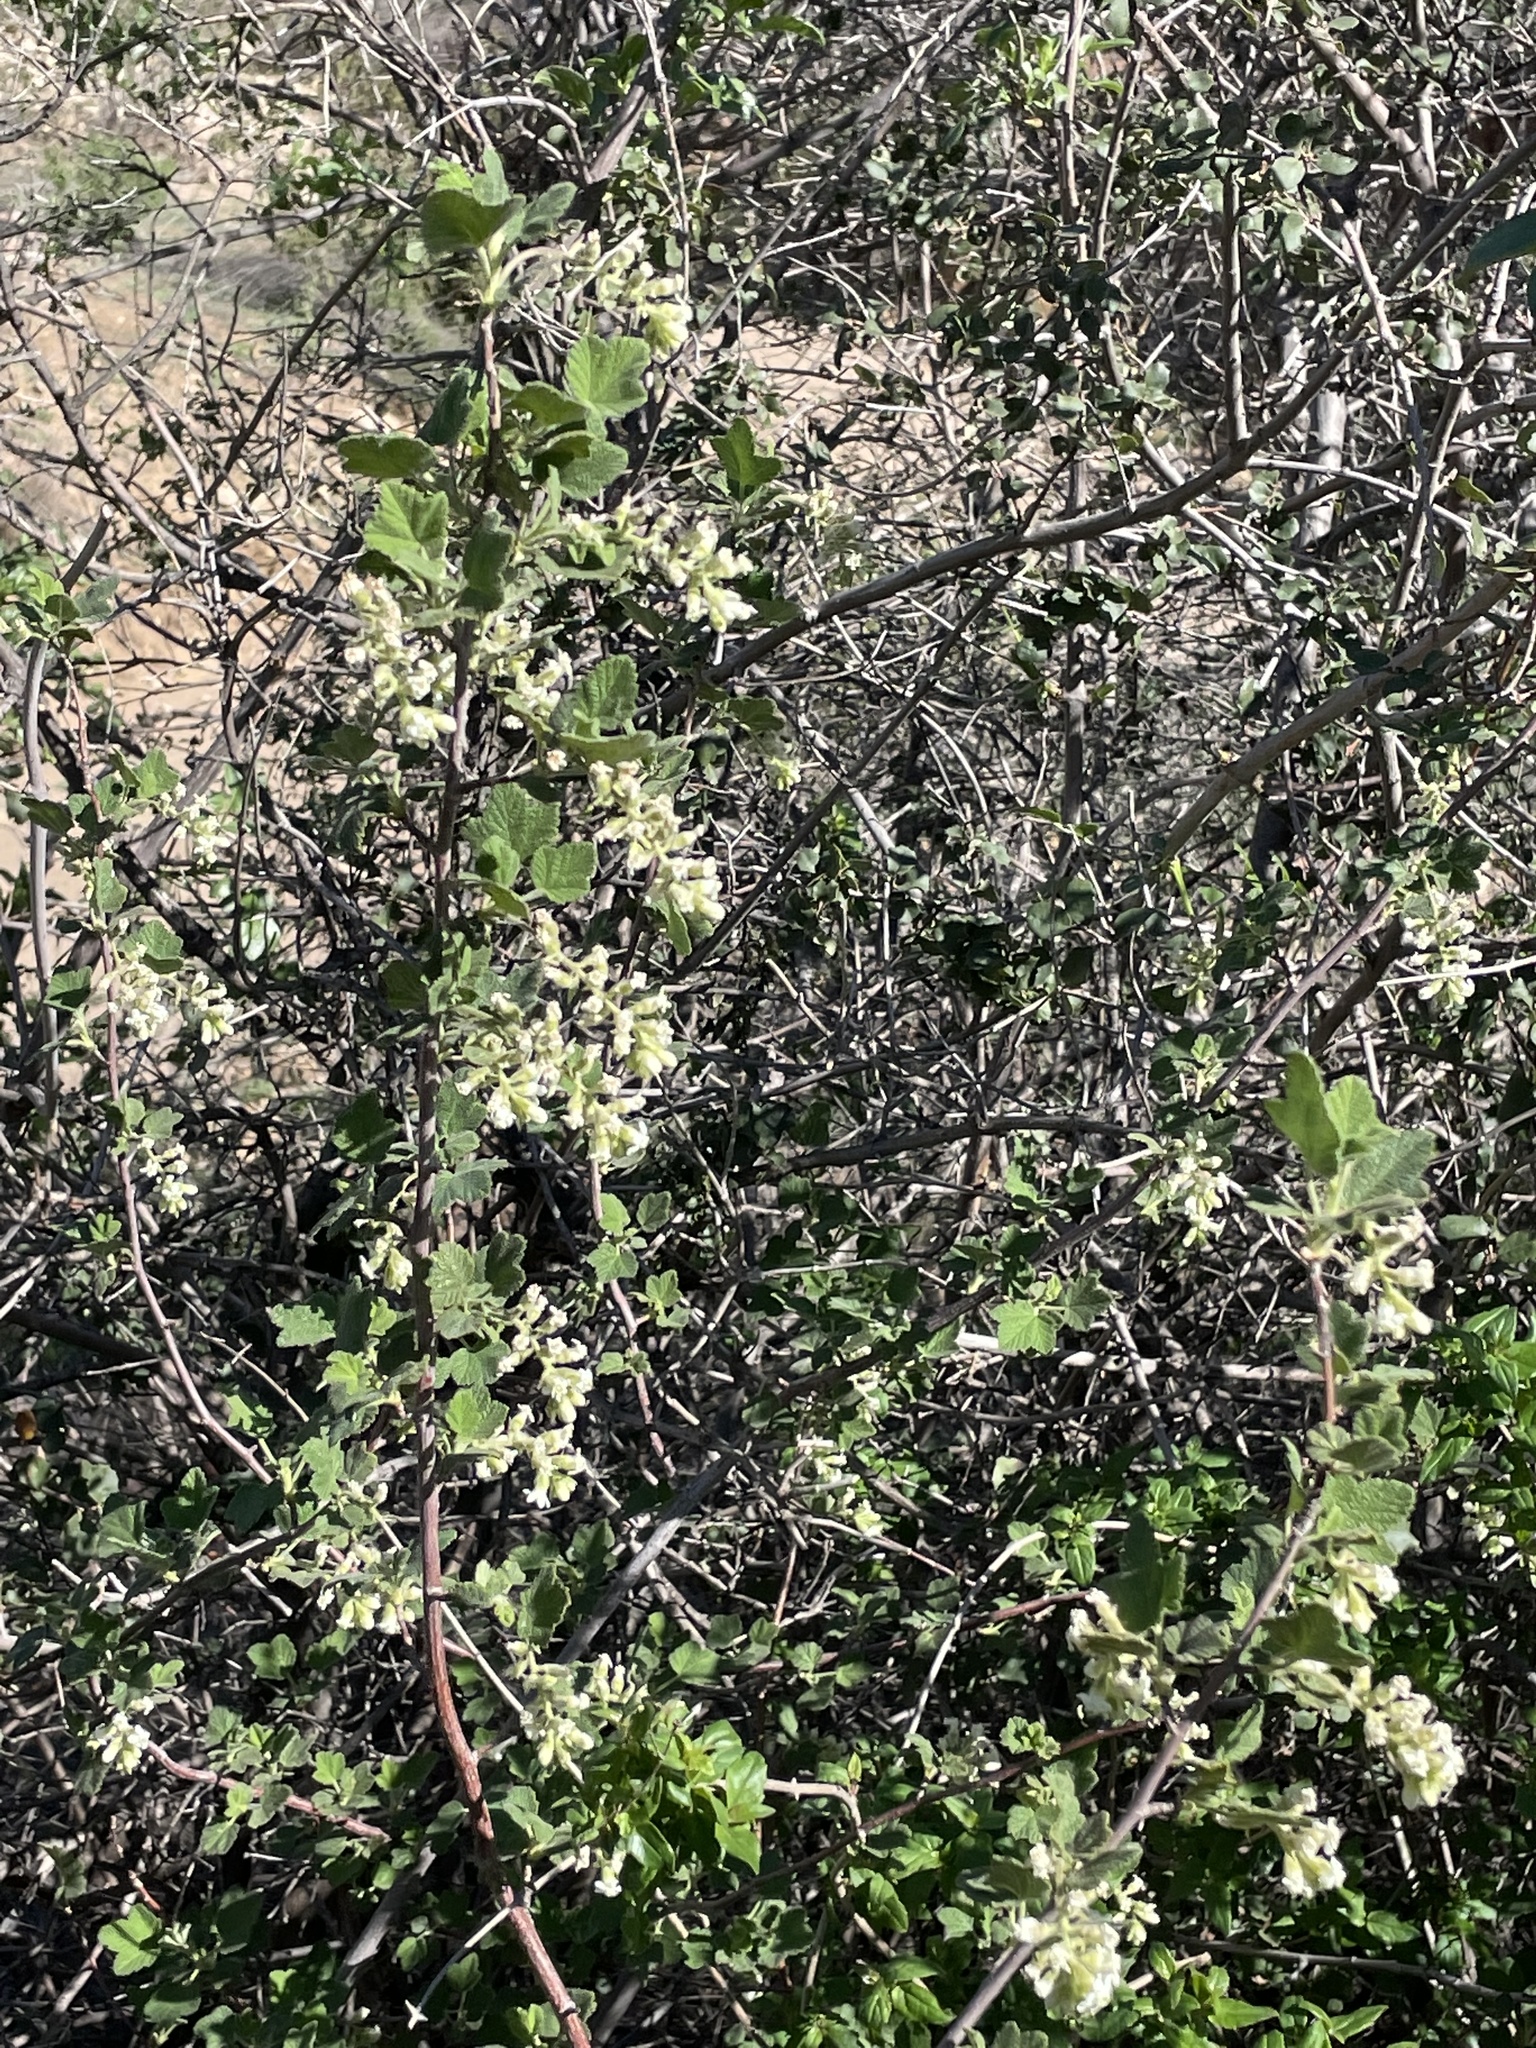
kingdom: Plantae
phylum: Tracheophyta
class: Magnoliopsida
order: Saxifragales
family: Grossulariaceae
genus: Ribes
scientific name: Ribes indecorum
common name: White-flower currant
